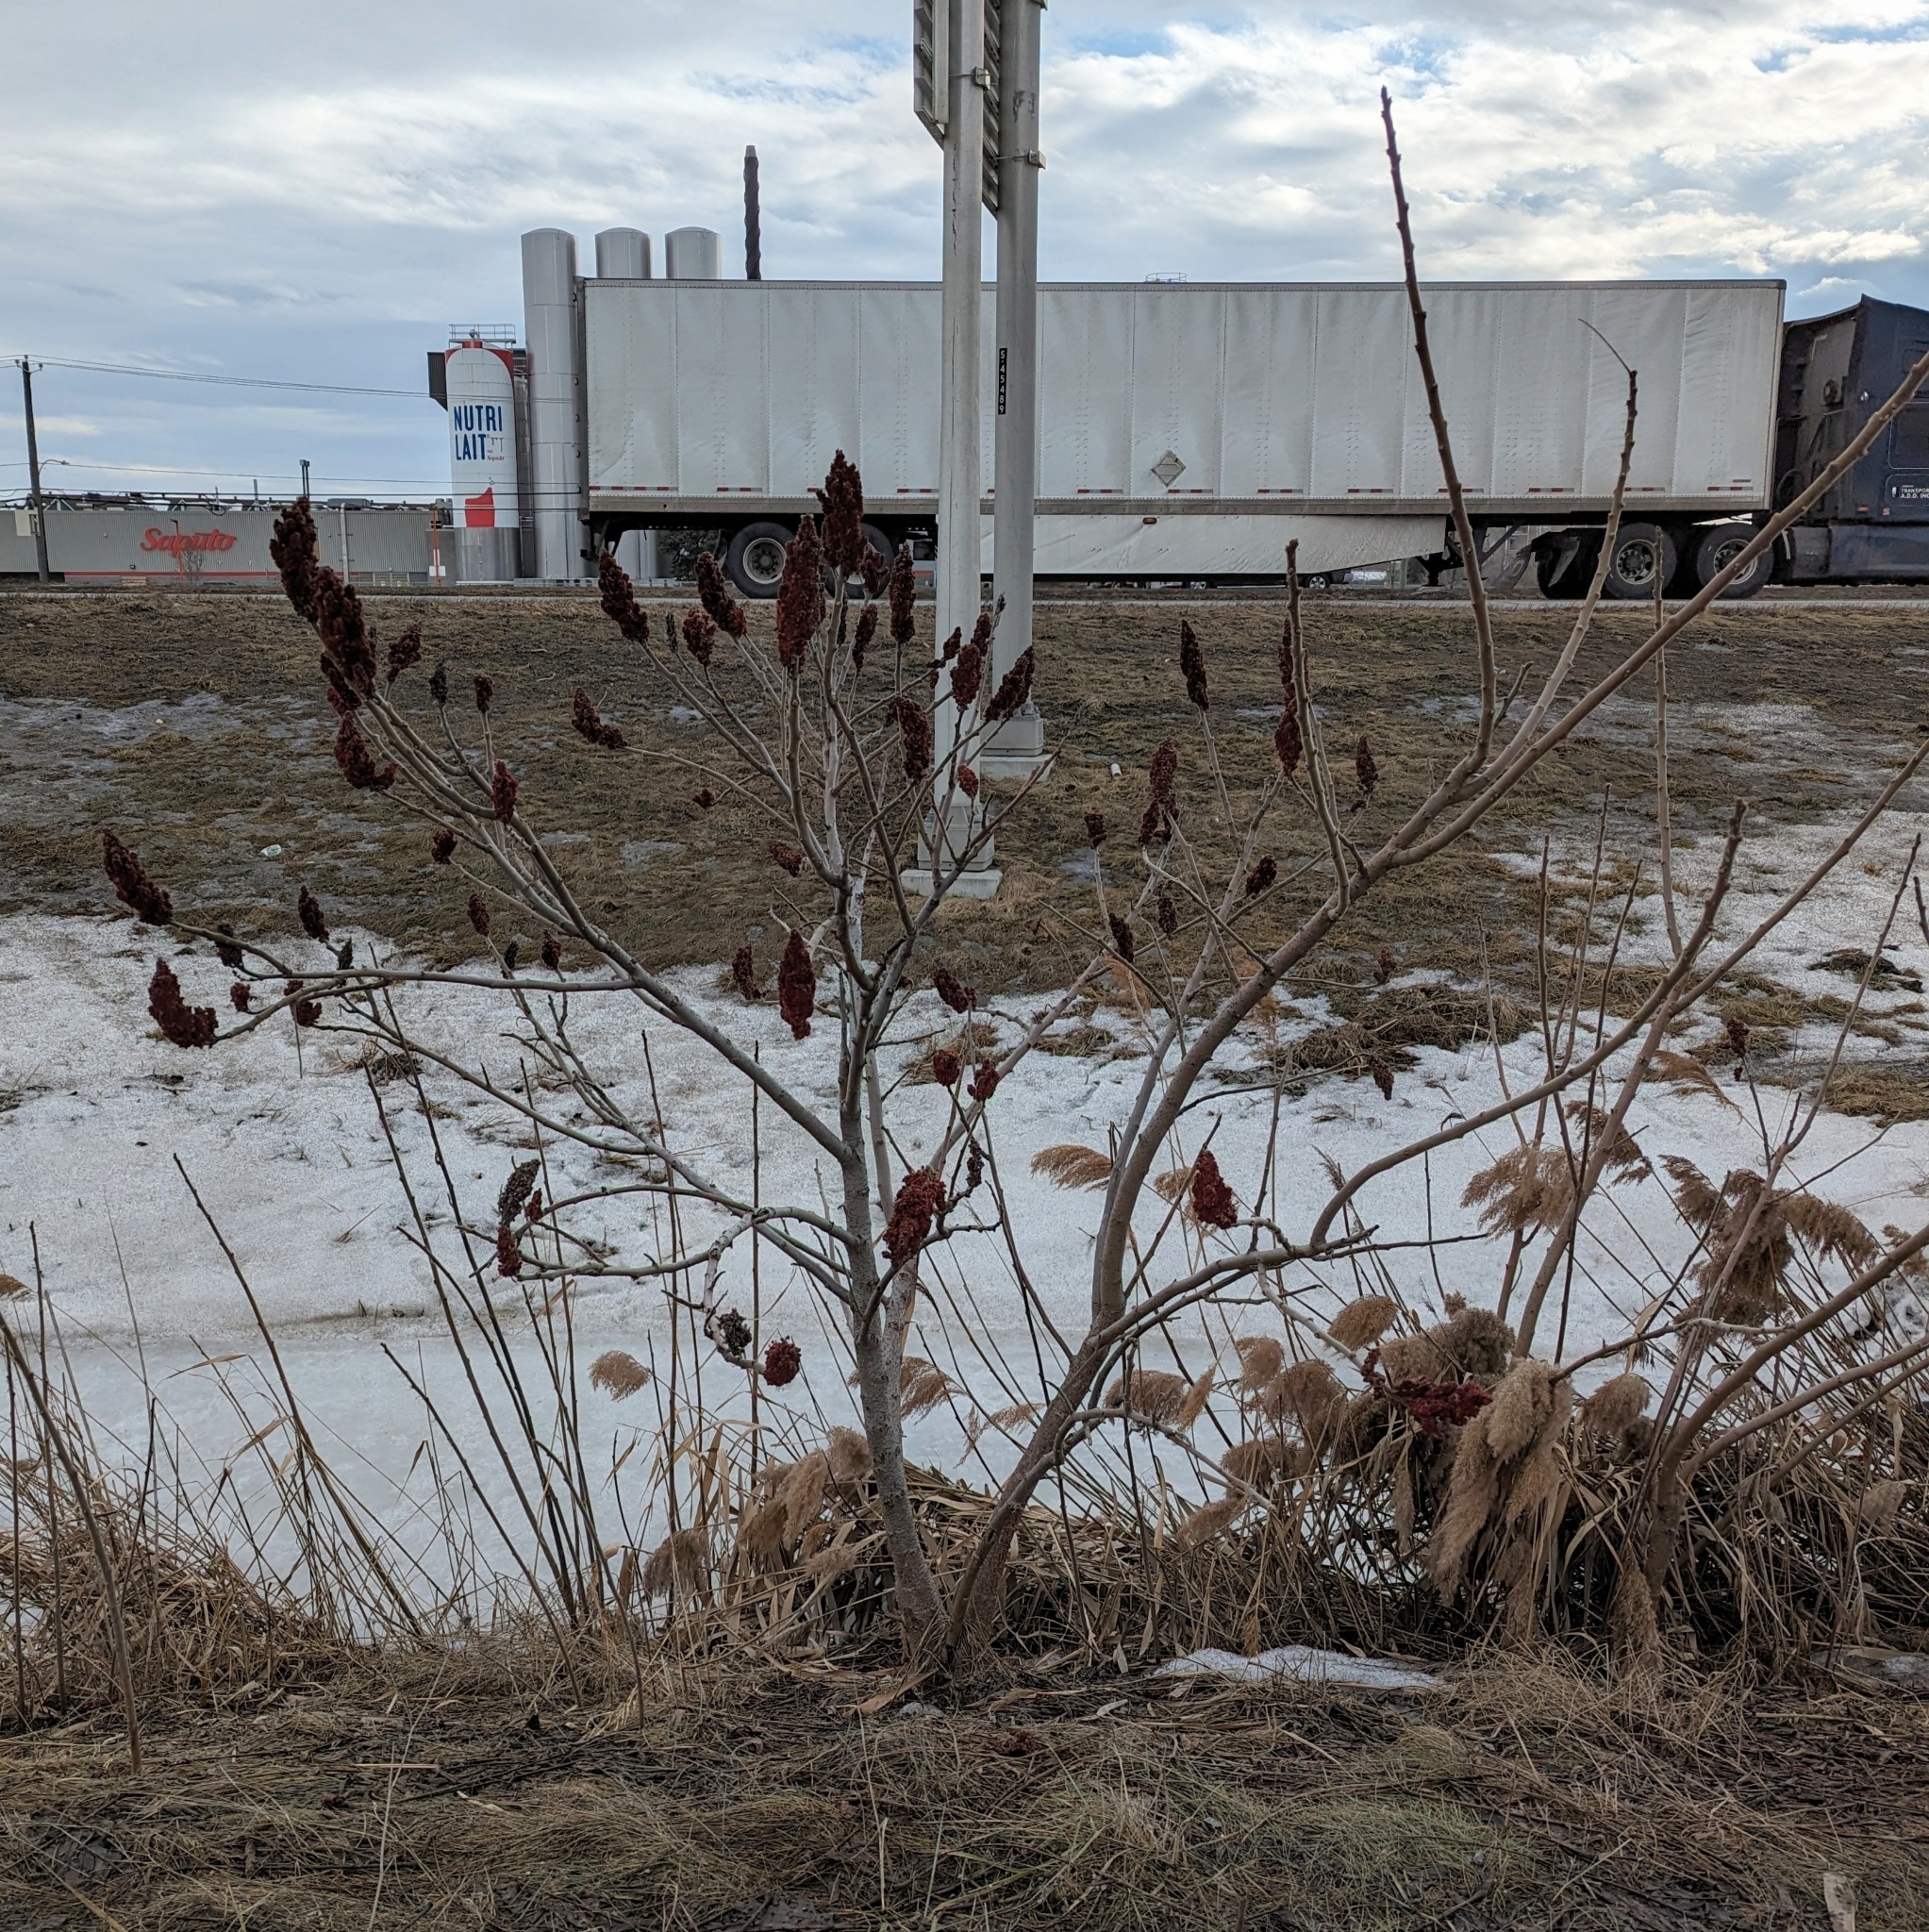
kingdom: Plantae
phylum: Tracheophyta
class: Magnoliopsida
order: Sapindales
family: Anacardiaceae
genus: Rhus
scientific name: Rhus typhina
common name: Staghorn sumac
